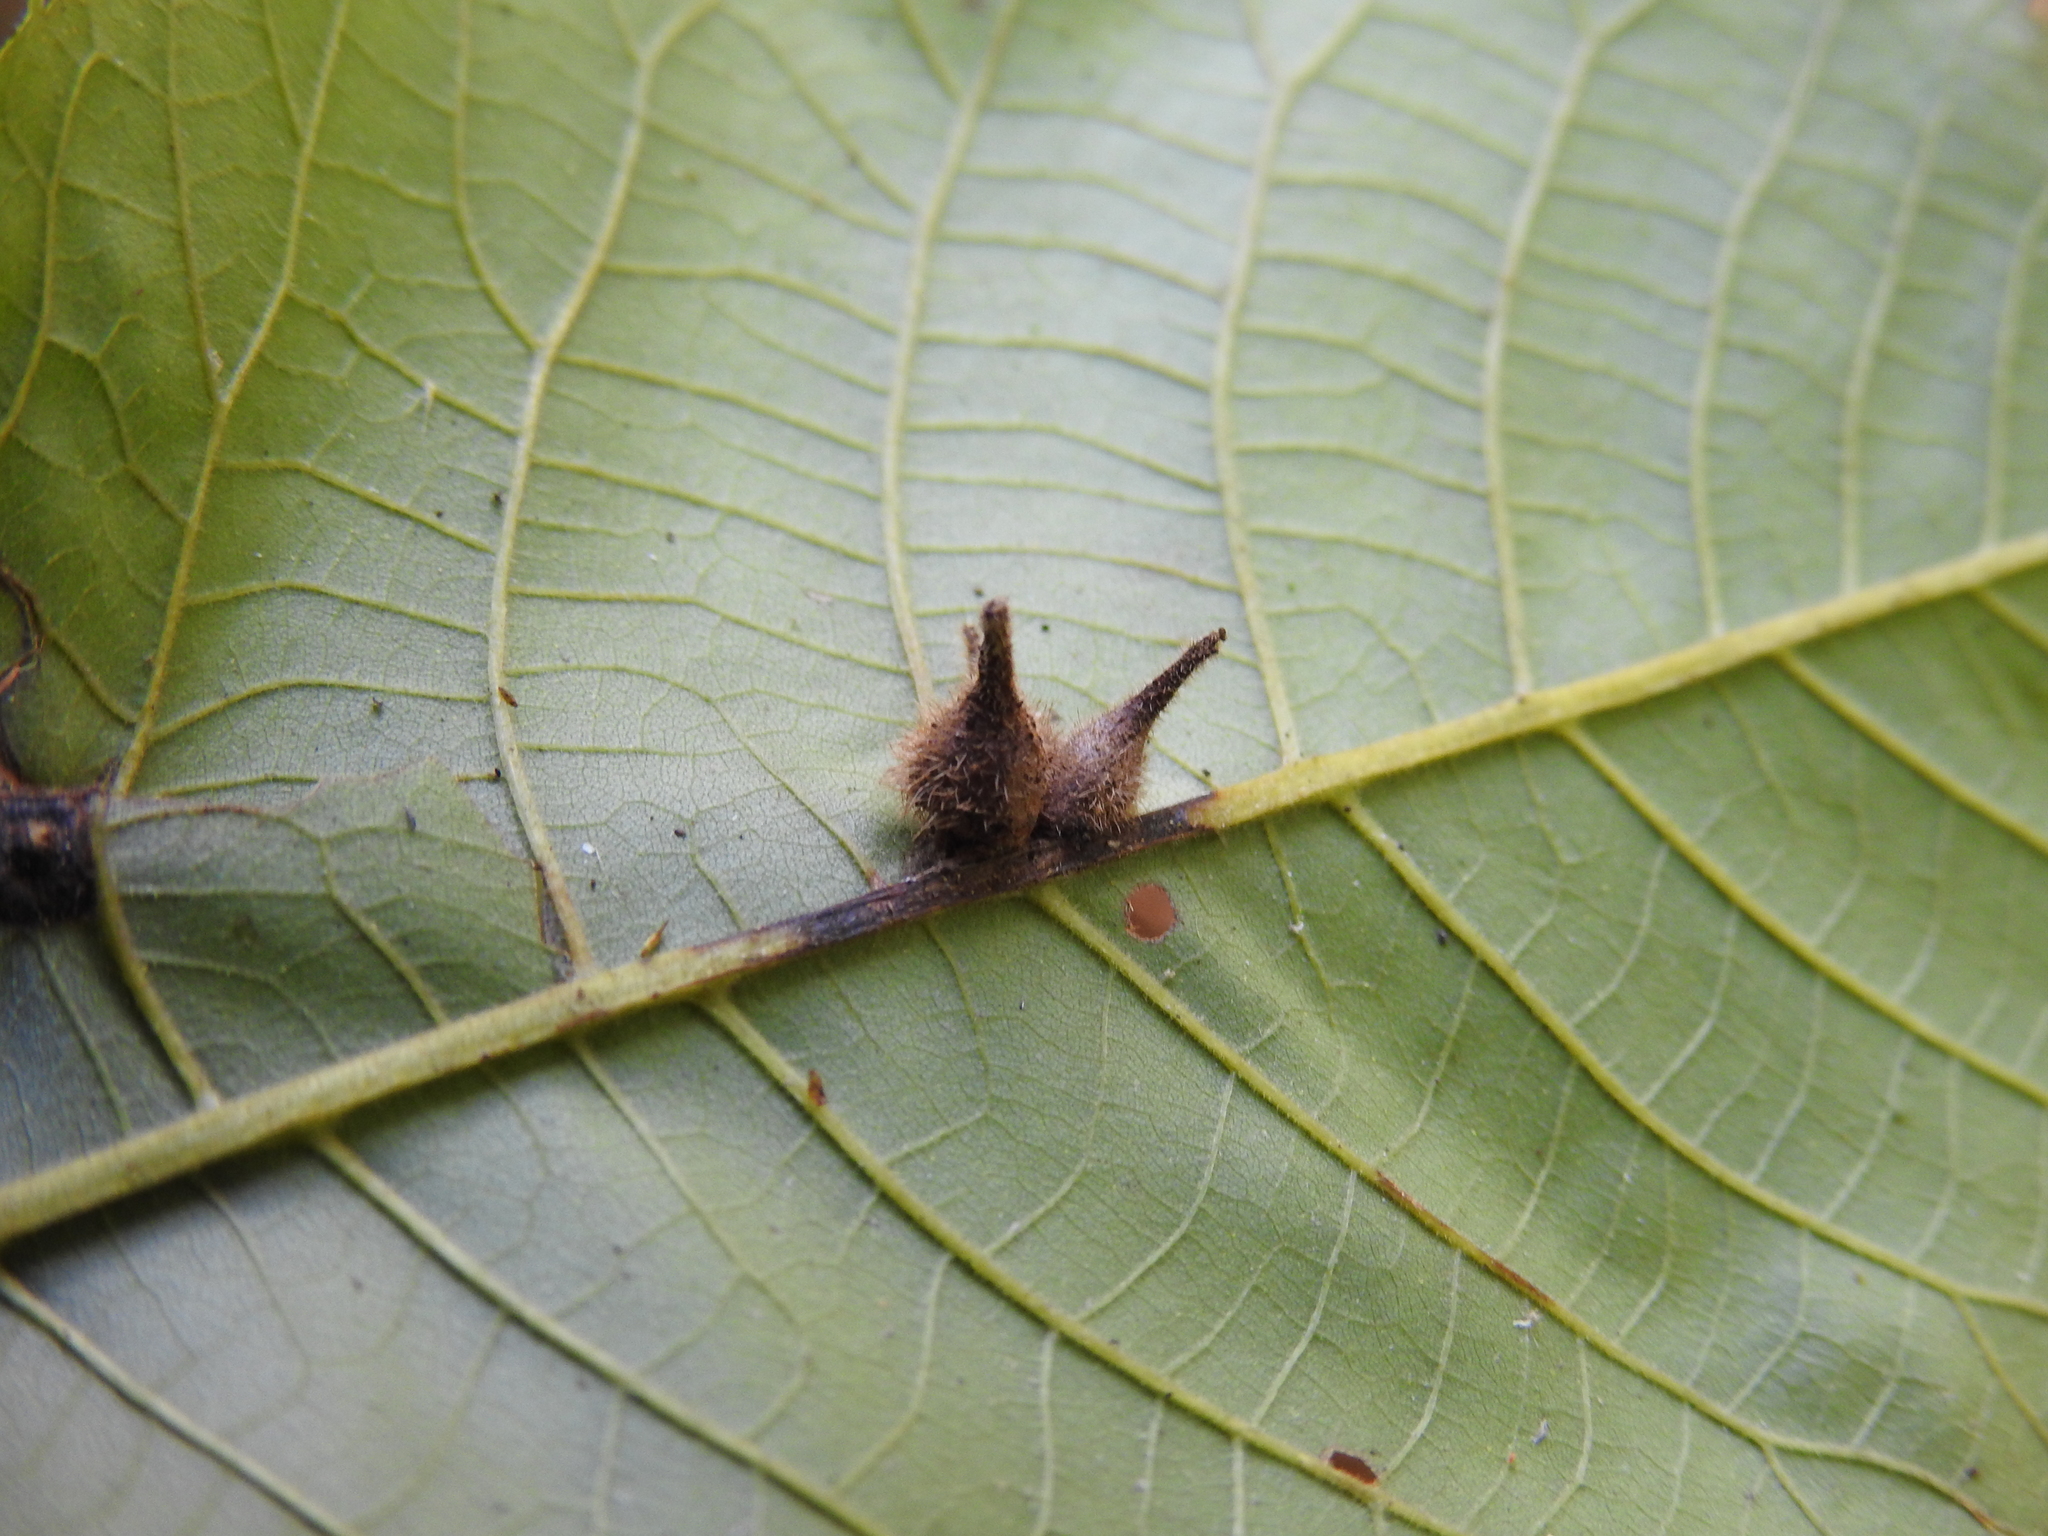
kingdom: Animalia
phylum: Arthropoda
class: Insecta
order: Diptera
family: Cecidomyiidae
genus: Caryomyia
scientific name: Caryomyia ansericollum
